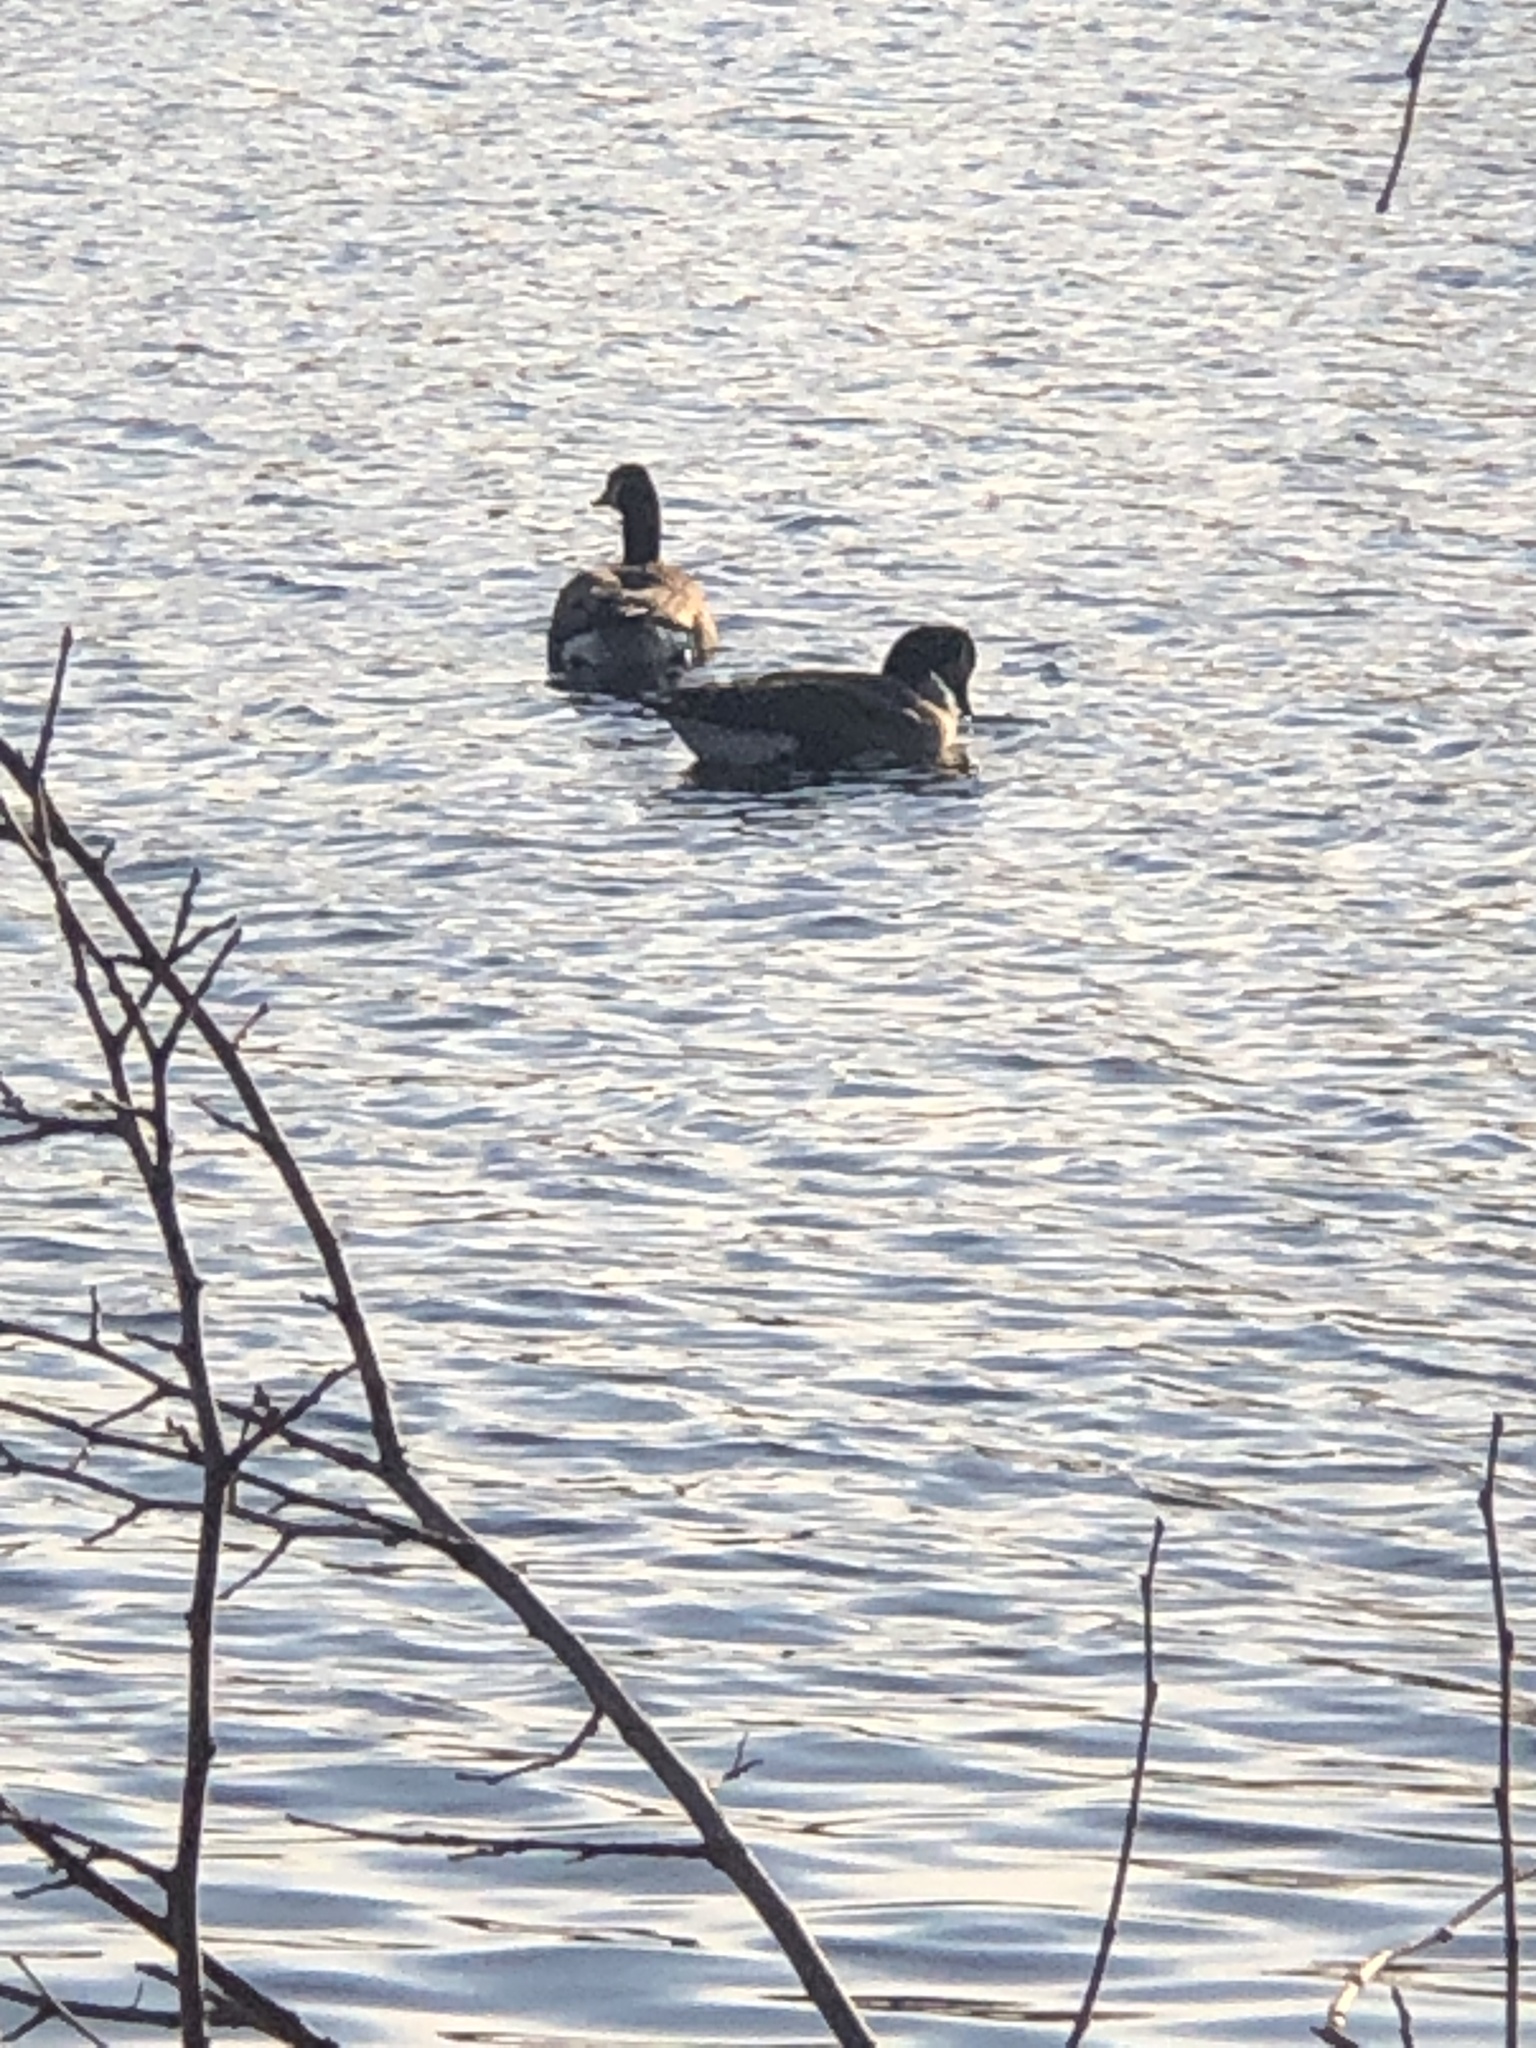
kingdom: Animalia
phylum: Chordata
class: Aves
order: Anseriformes
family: Anatidae
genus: Branta
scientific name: Branta canadensis
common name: Canada goose
